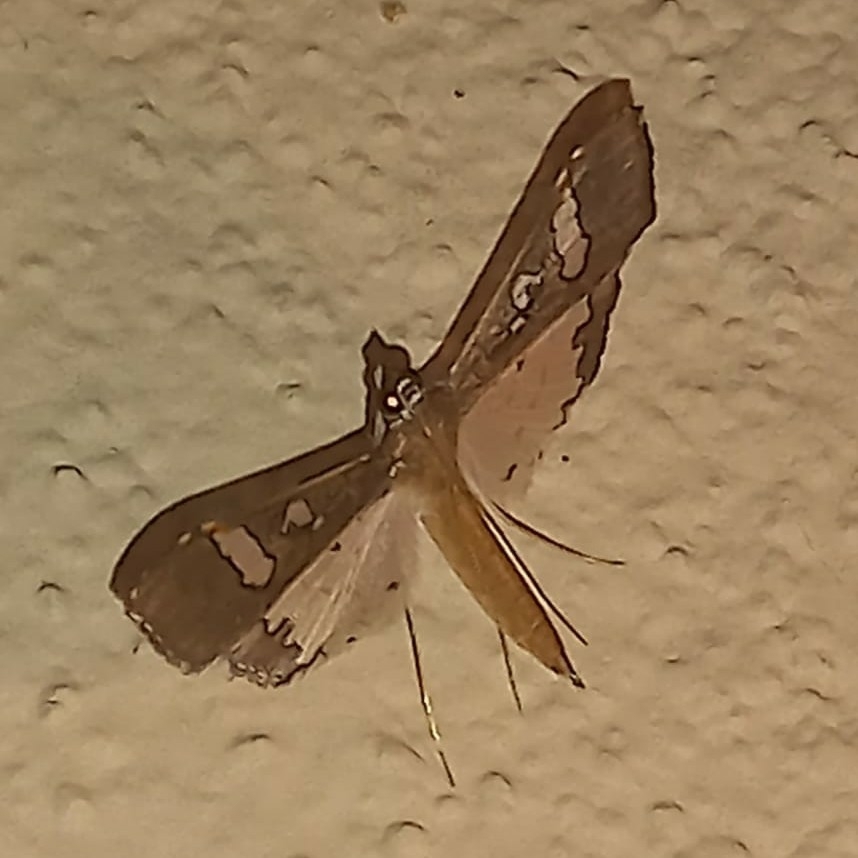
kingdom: Animalia
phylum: Arthropoda
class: Insecta
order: Lepidoptera
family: Crambidae
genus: Maruca
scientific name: Maruca vitrata
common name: Maruca pod borer
